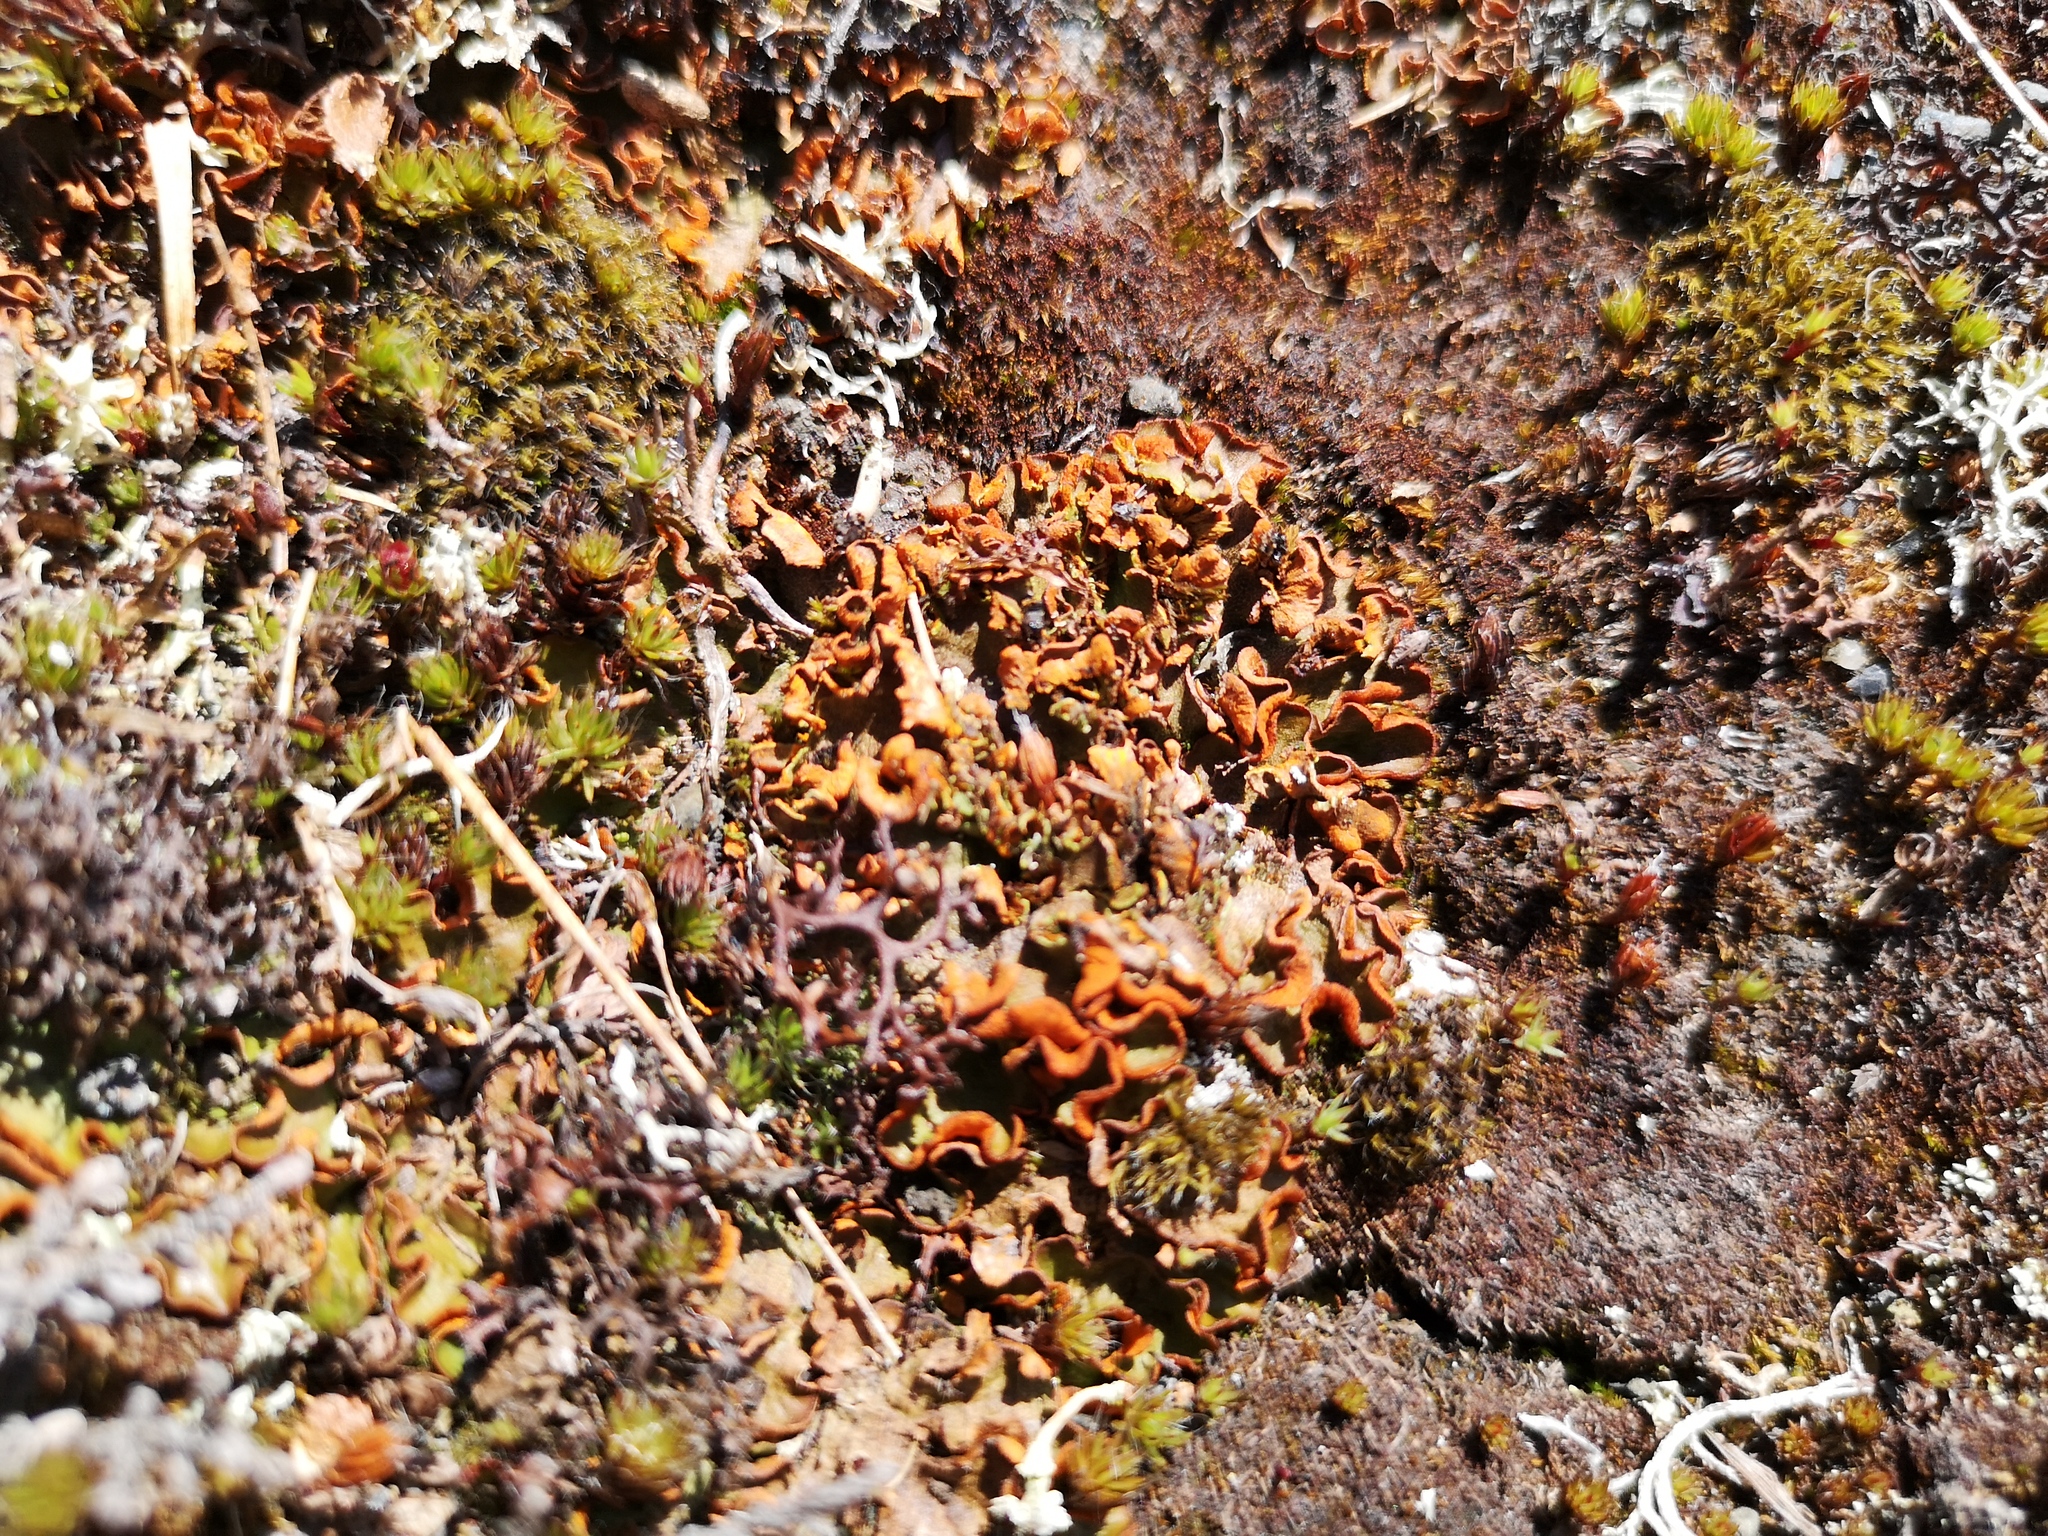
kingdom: Fungi
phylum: Ascomycota
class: Lecanoromycetes
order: Peltigerales
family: Peltigeraceae
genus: Solorina
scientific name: Solorina crocea
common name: Mountain saffron
